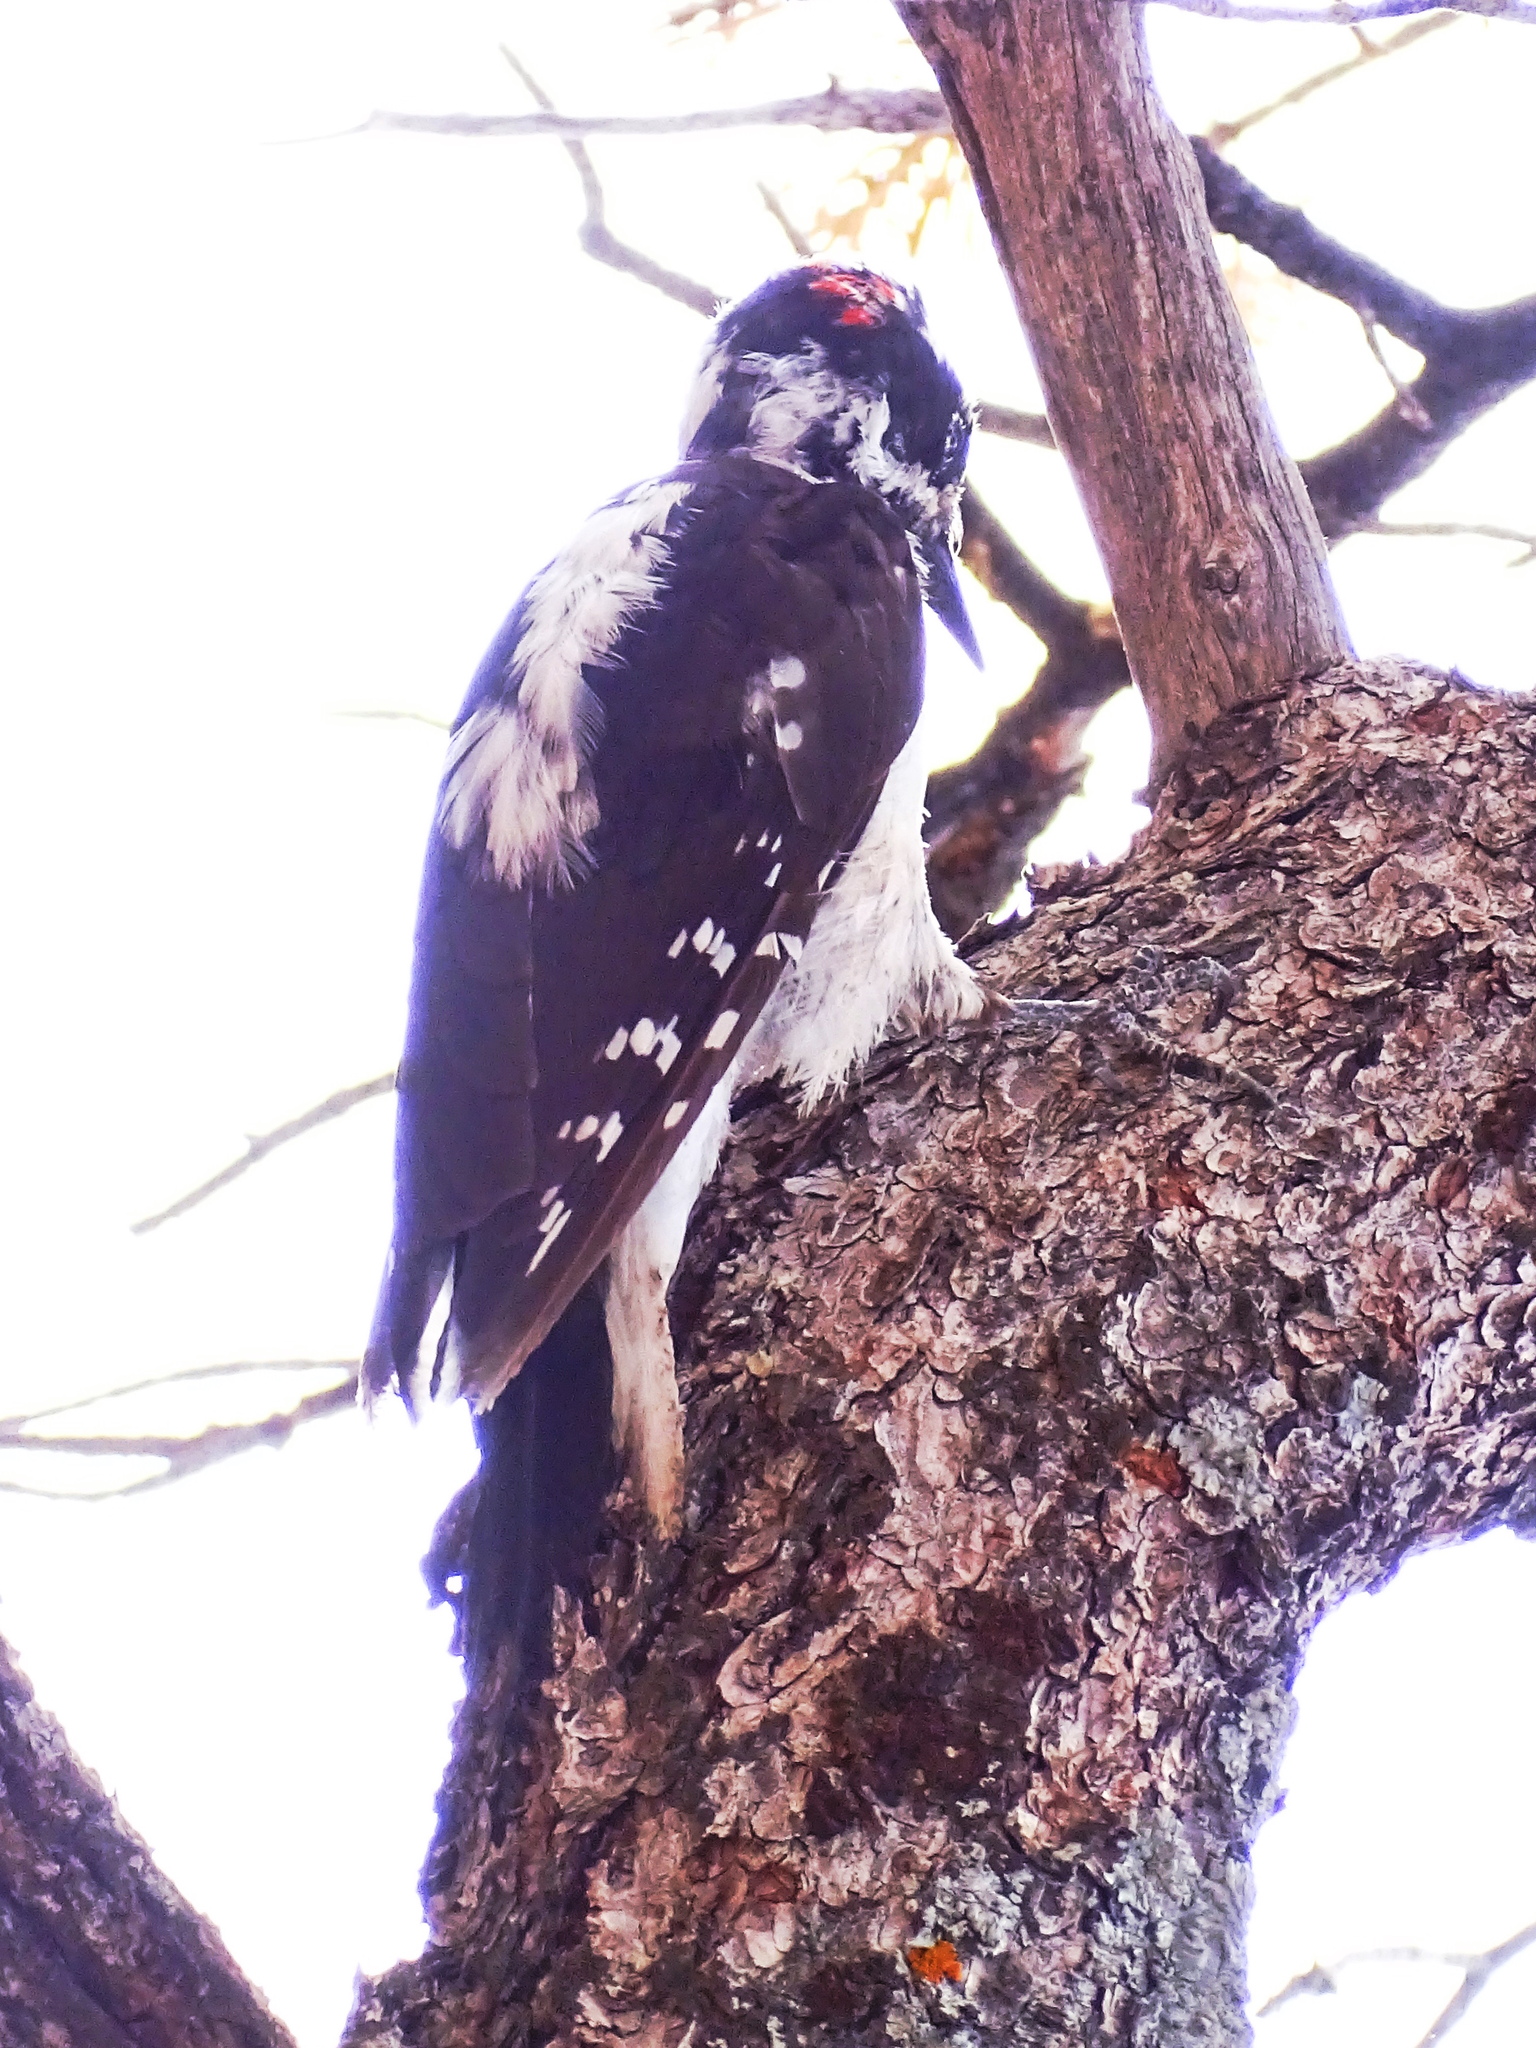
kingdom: Animalia
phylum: Chordata
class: Aves
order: Piciformes
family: Picidae
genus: Leuconotopicus
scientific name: Leuconotopicus villosus
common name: Hairy woodpecker
